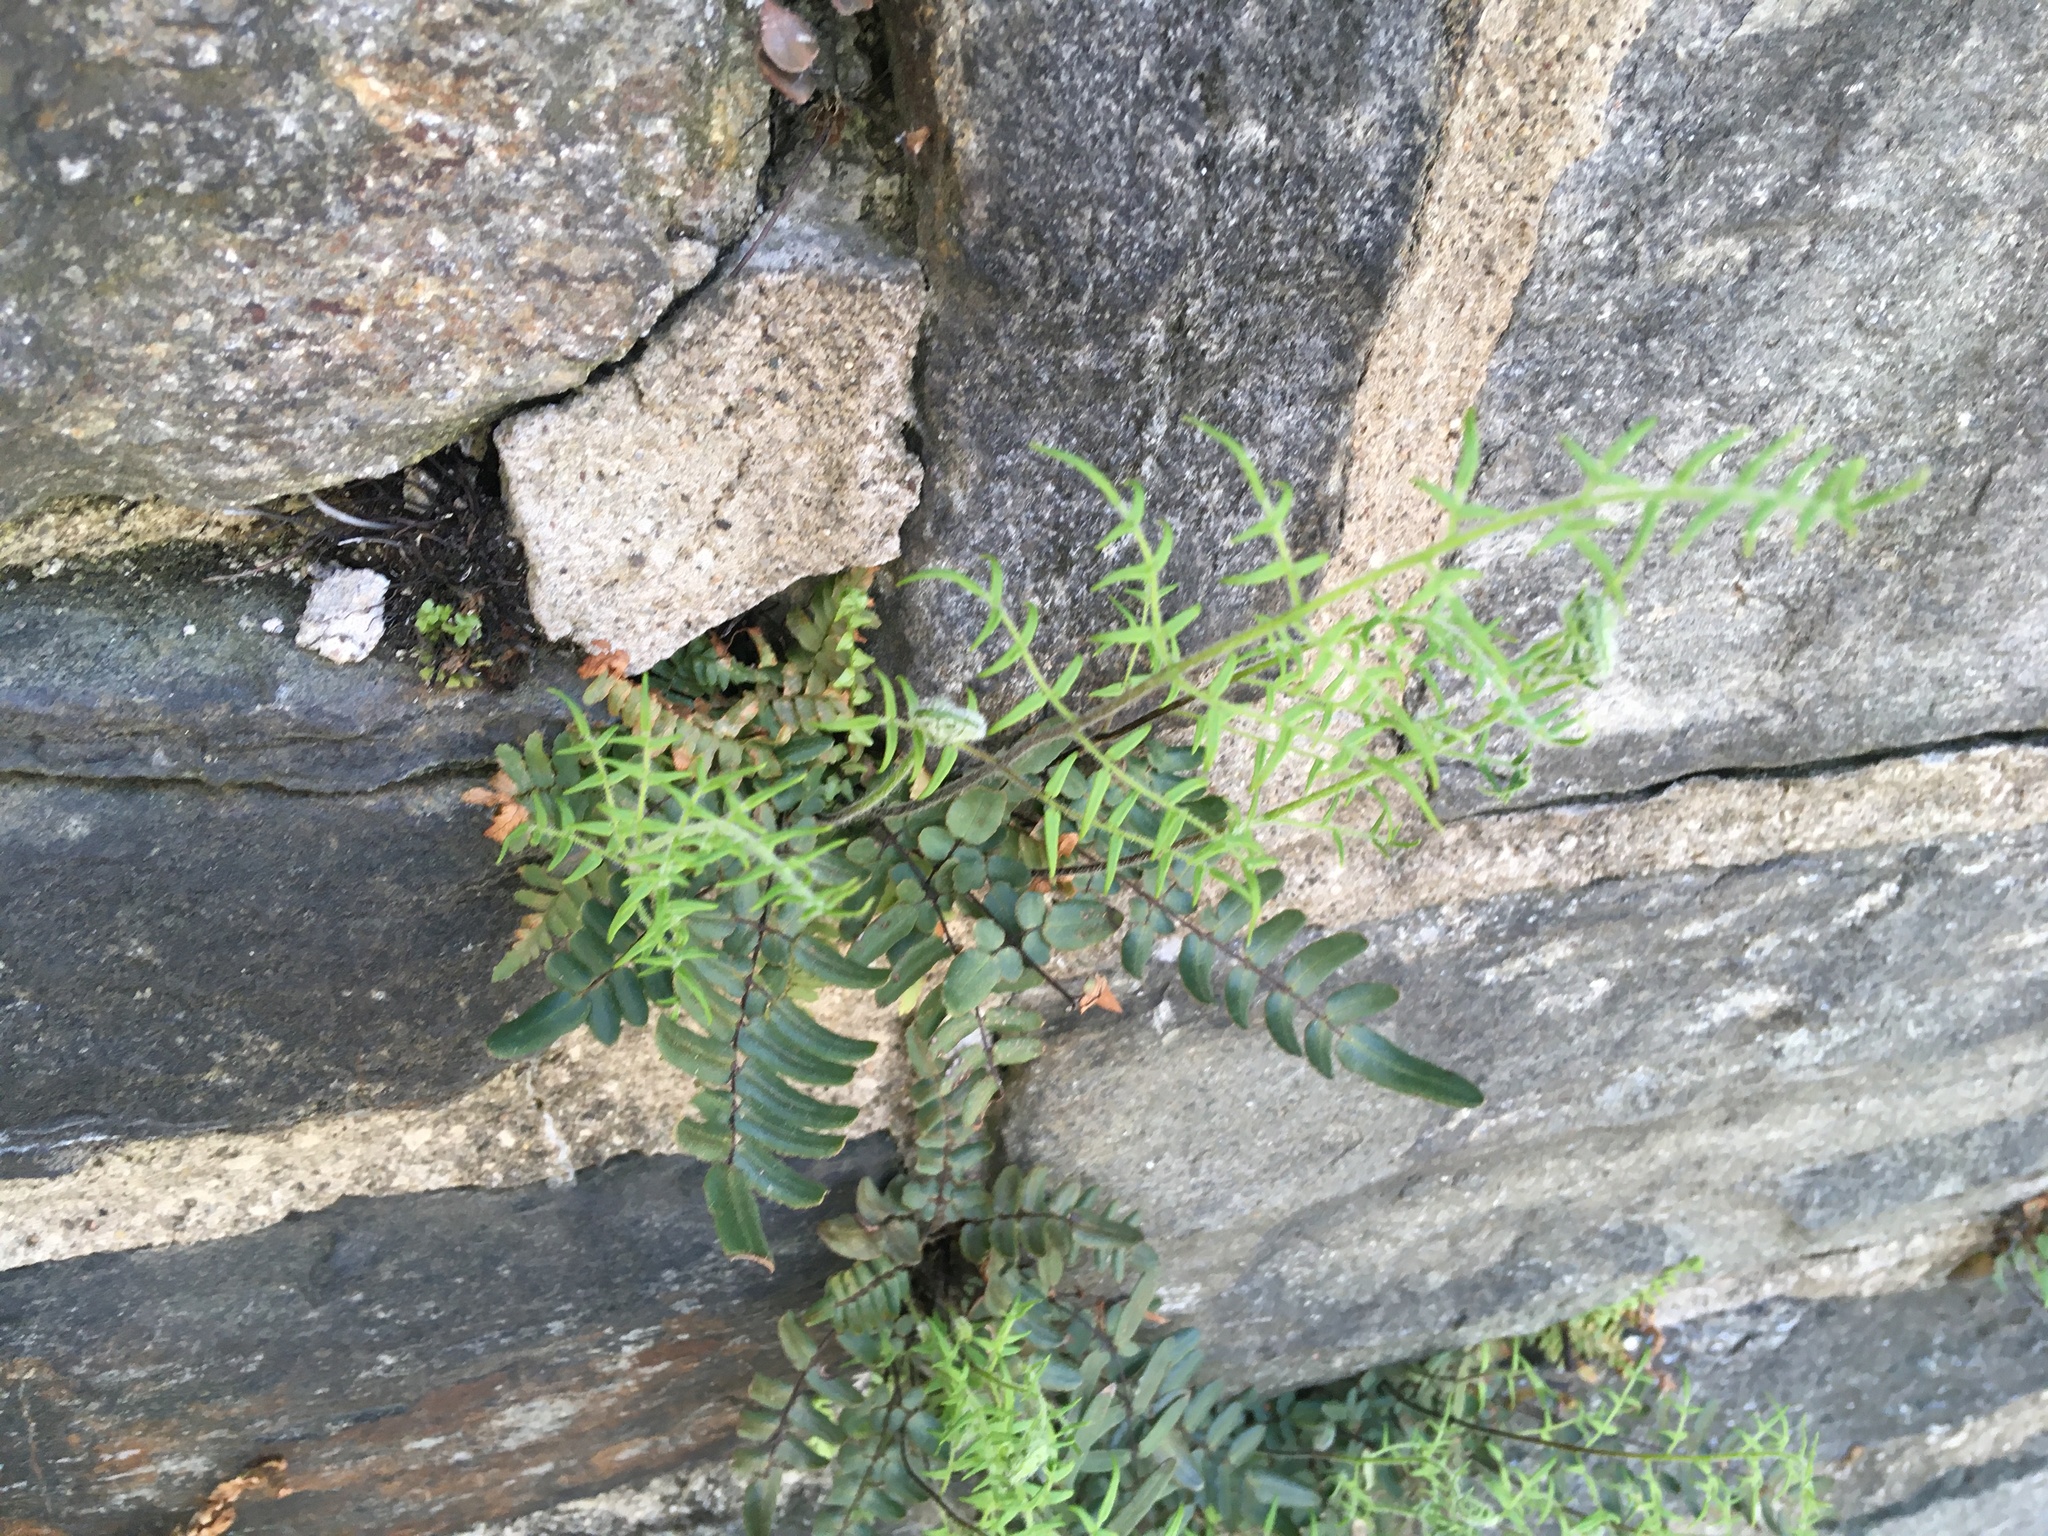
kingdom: Plantae
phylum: Tracheophyta
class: Polypodiopsida
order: Polypodiales
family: Pteridaceae
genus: Pellaea
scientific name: Pellaea atropurpurea
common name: Hairy cliffbrake
